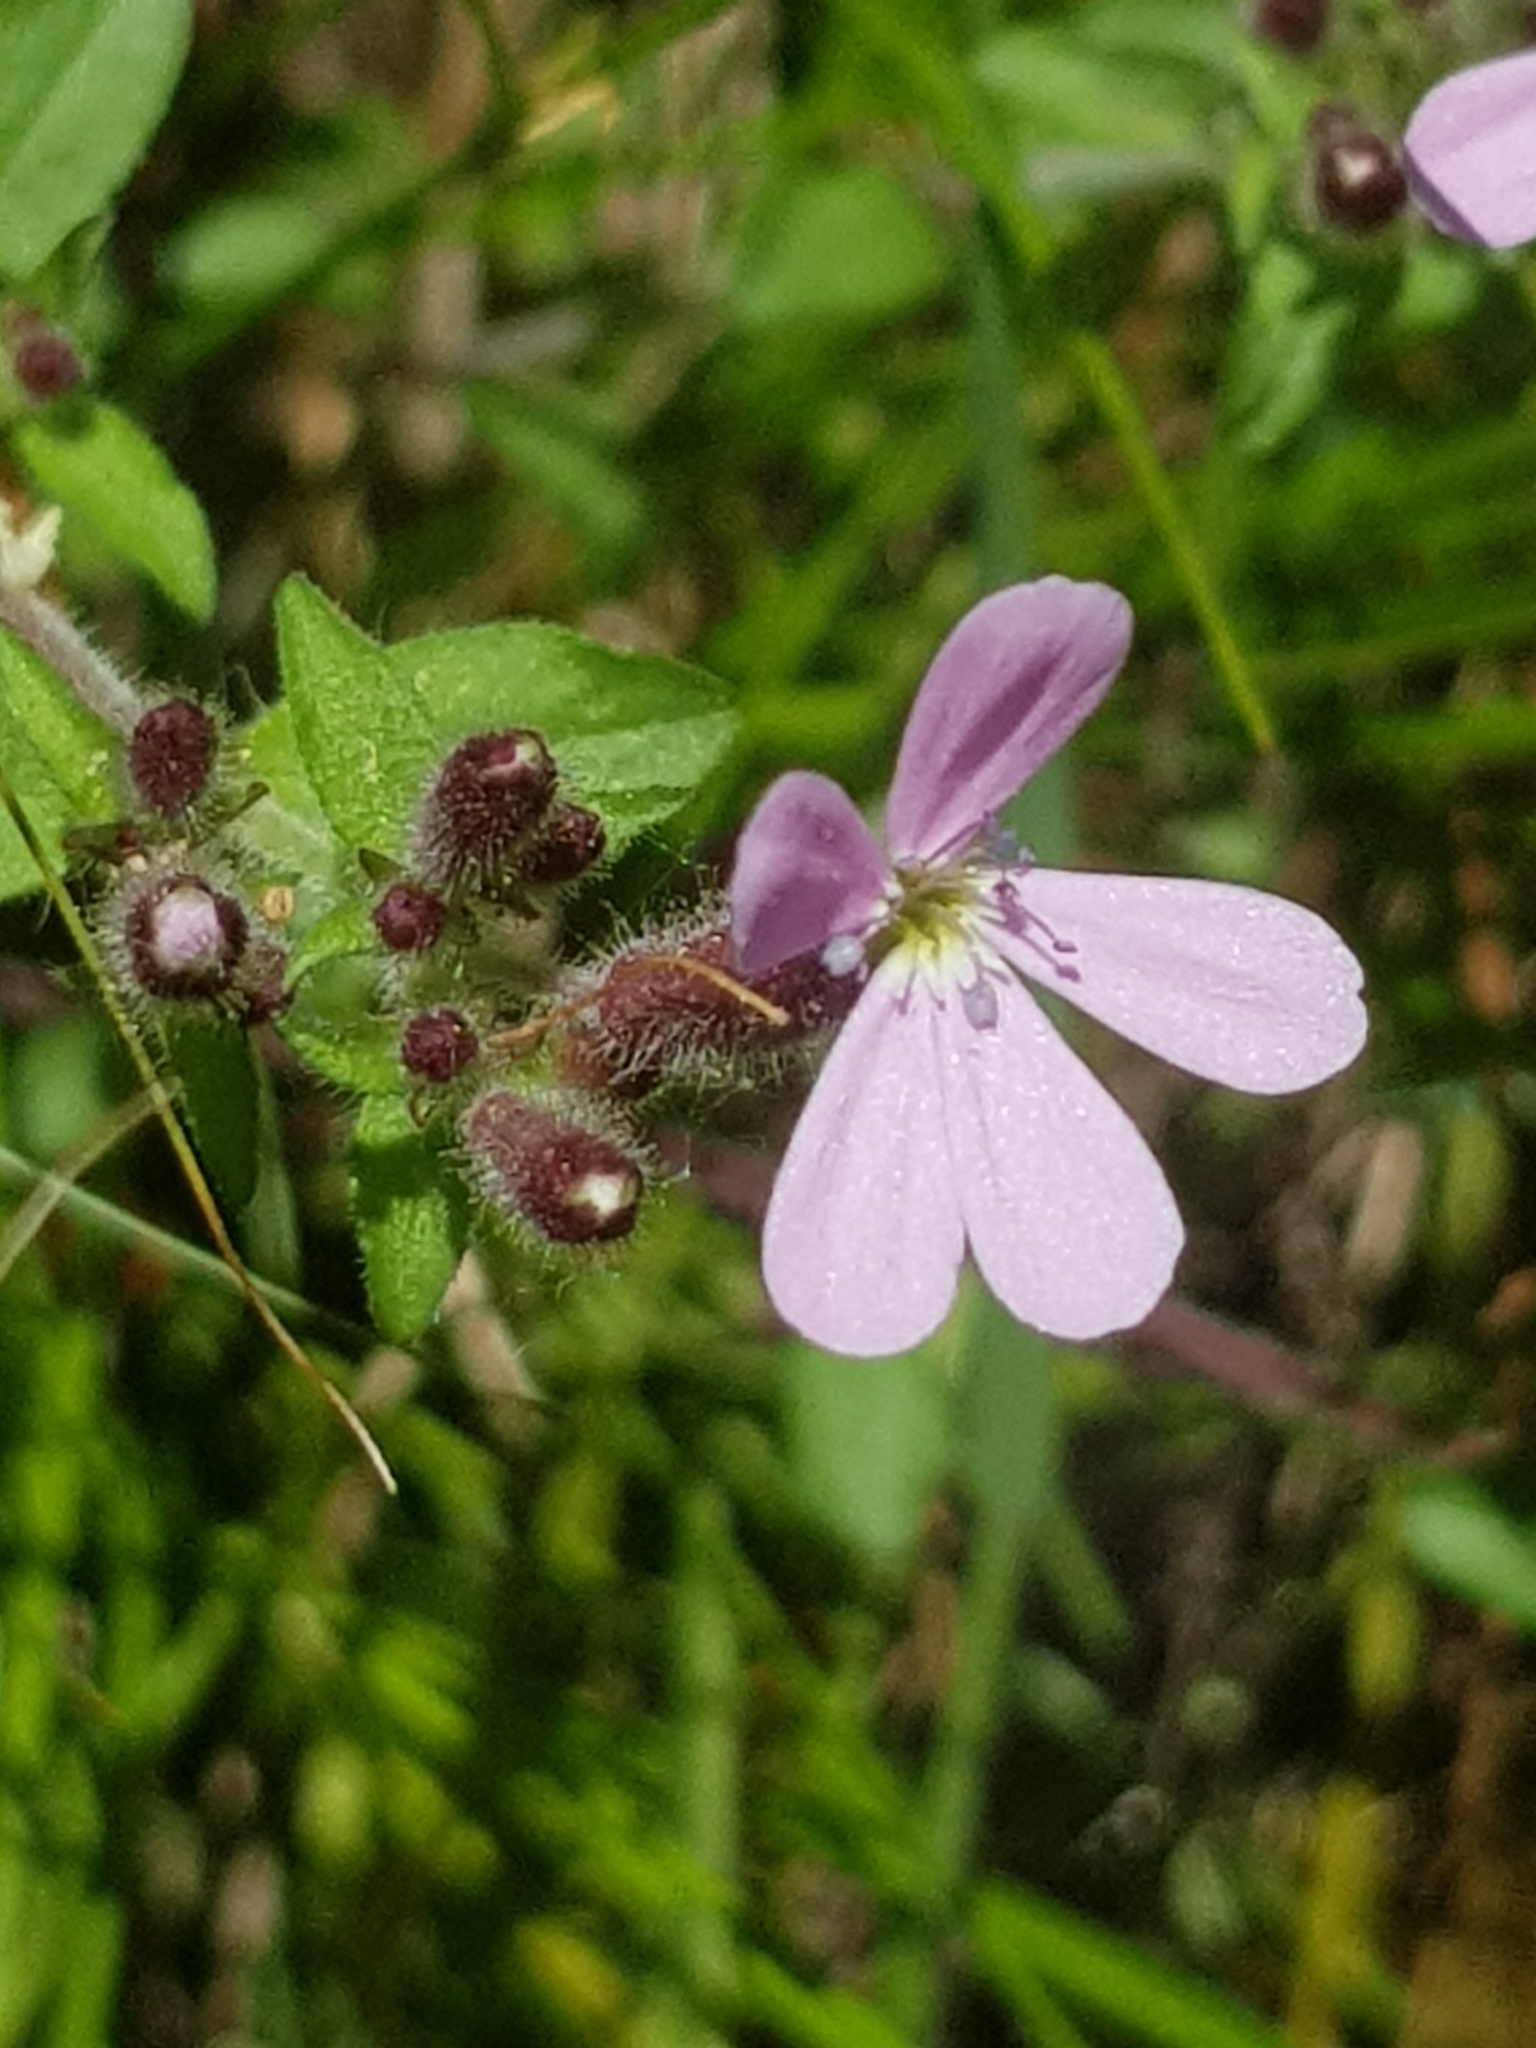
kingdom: Plantae
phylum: Tracheophyta
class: Magnoliopsida
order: Caryophyllales
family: Caryophyllaceae
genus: Saponaria
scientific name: Saponaria ocymoides
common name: Rock soapwort
